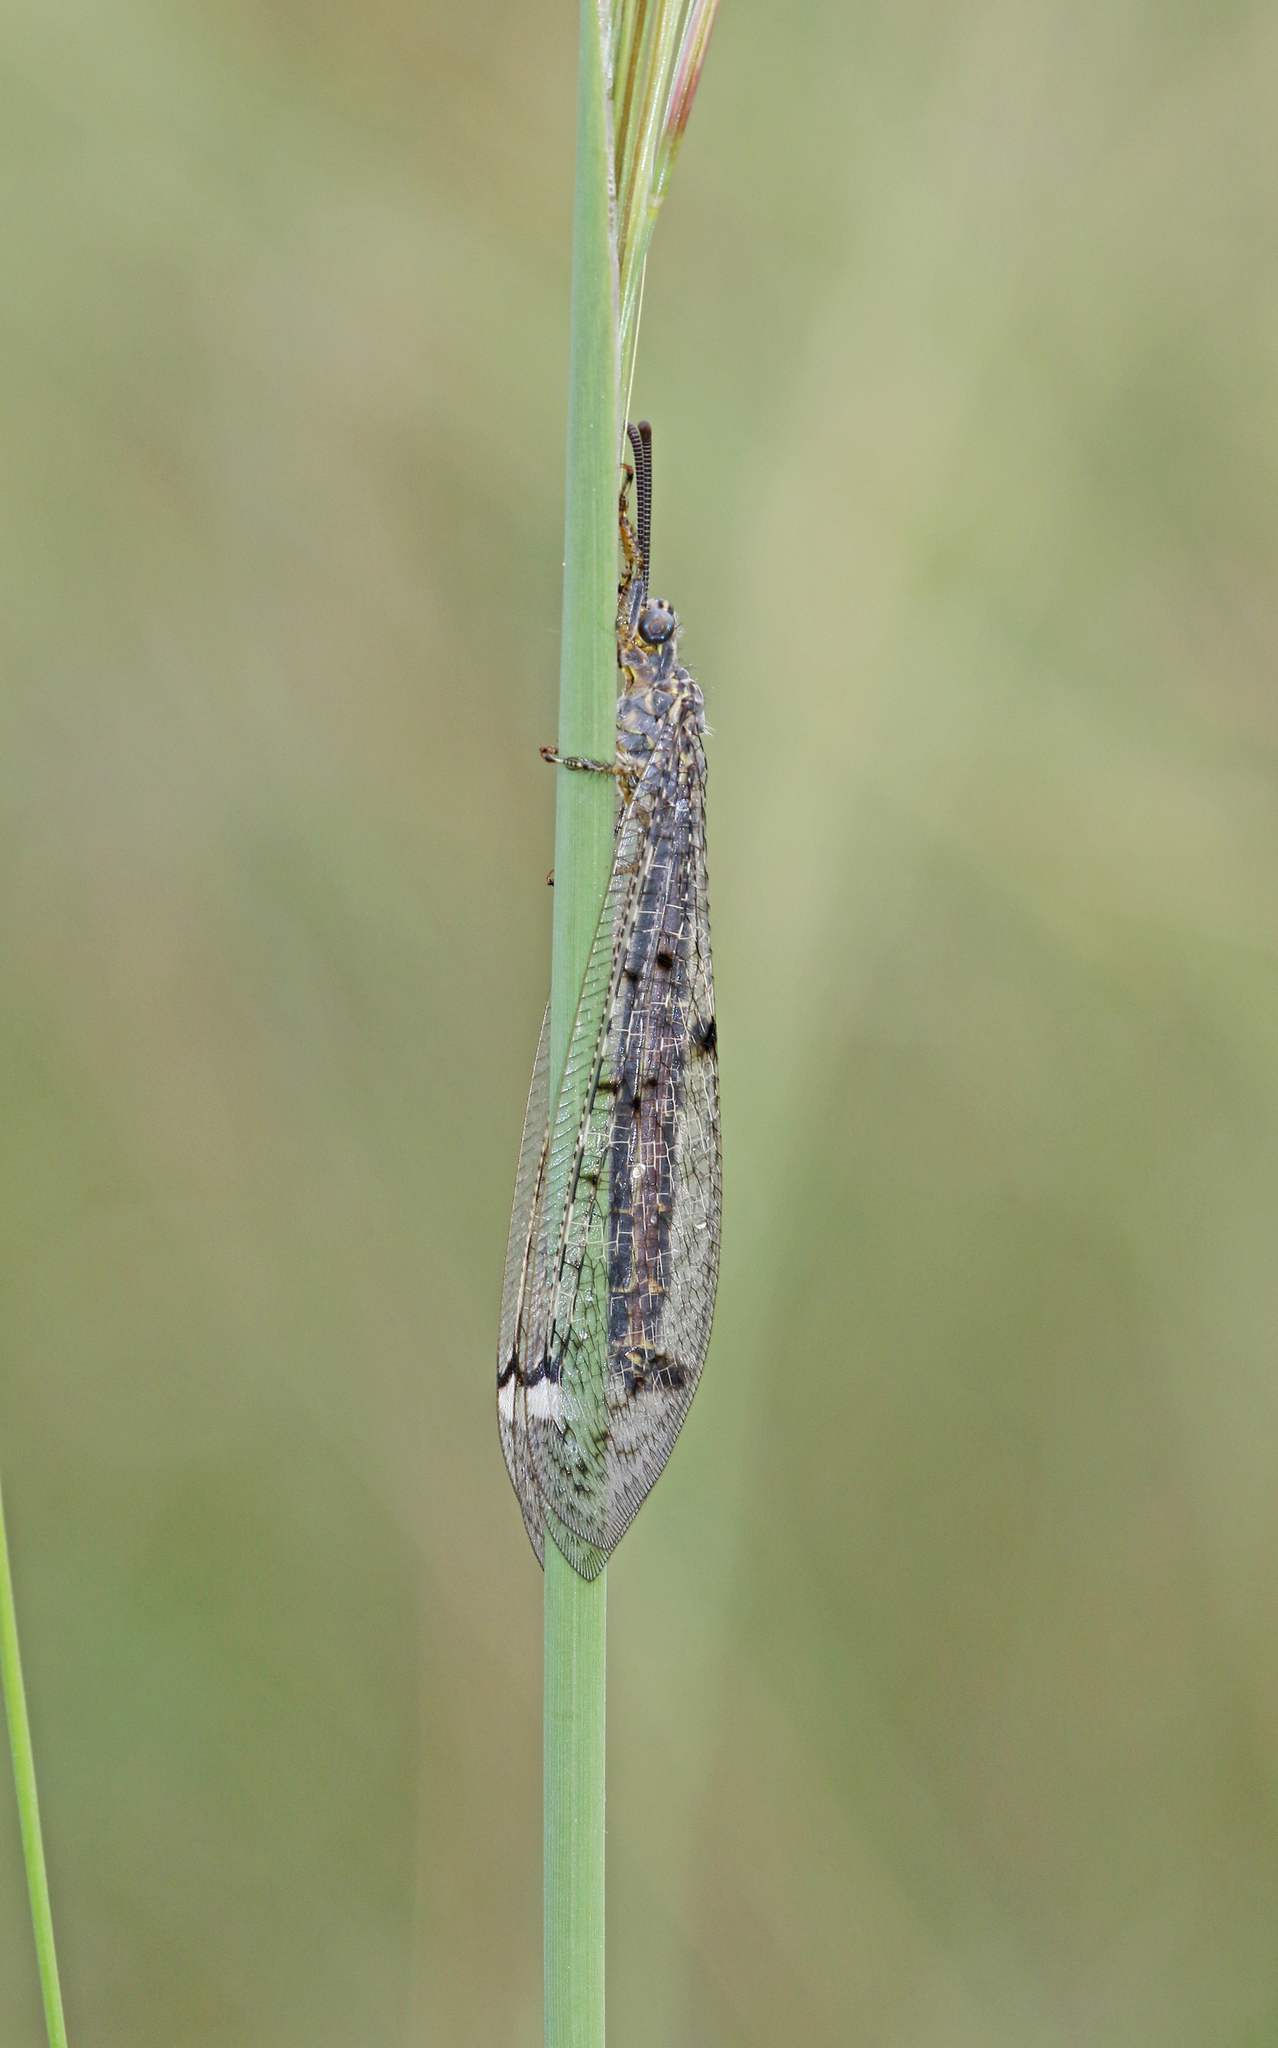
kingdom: Animalia
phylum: Arthropoda
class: Insecta
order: Neuroptera
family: Myrmeleontidae
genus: Distoleon
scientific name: Distoleon tetragrammicus
